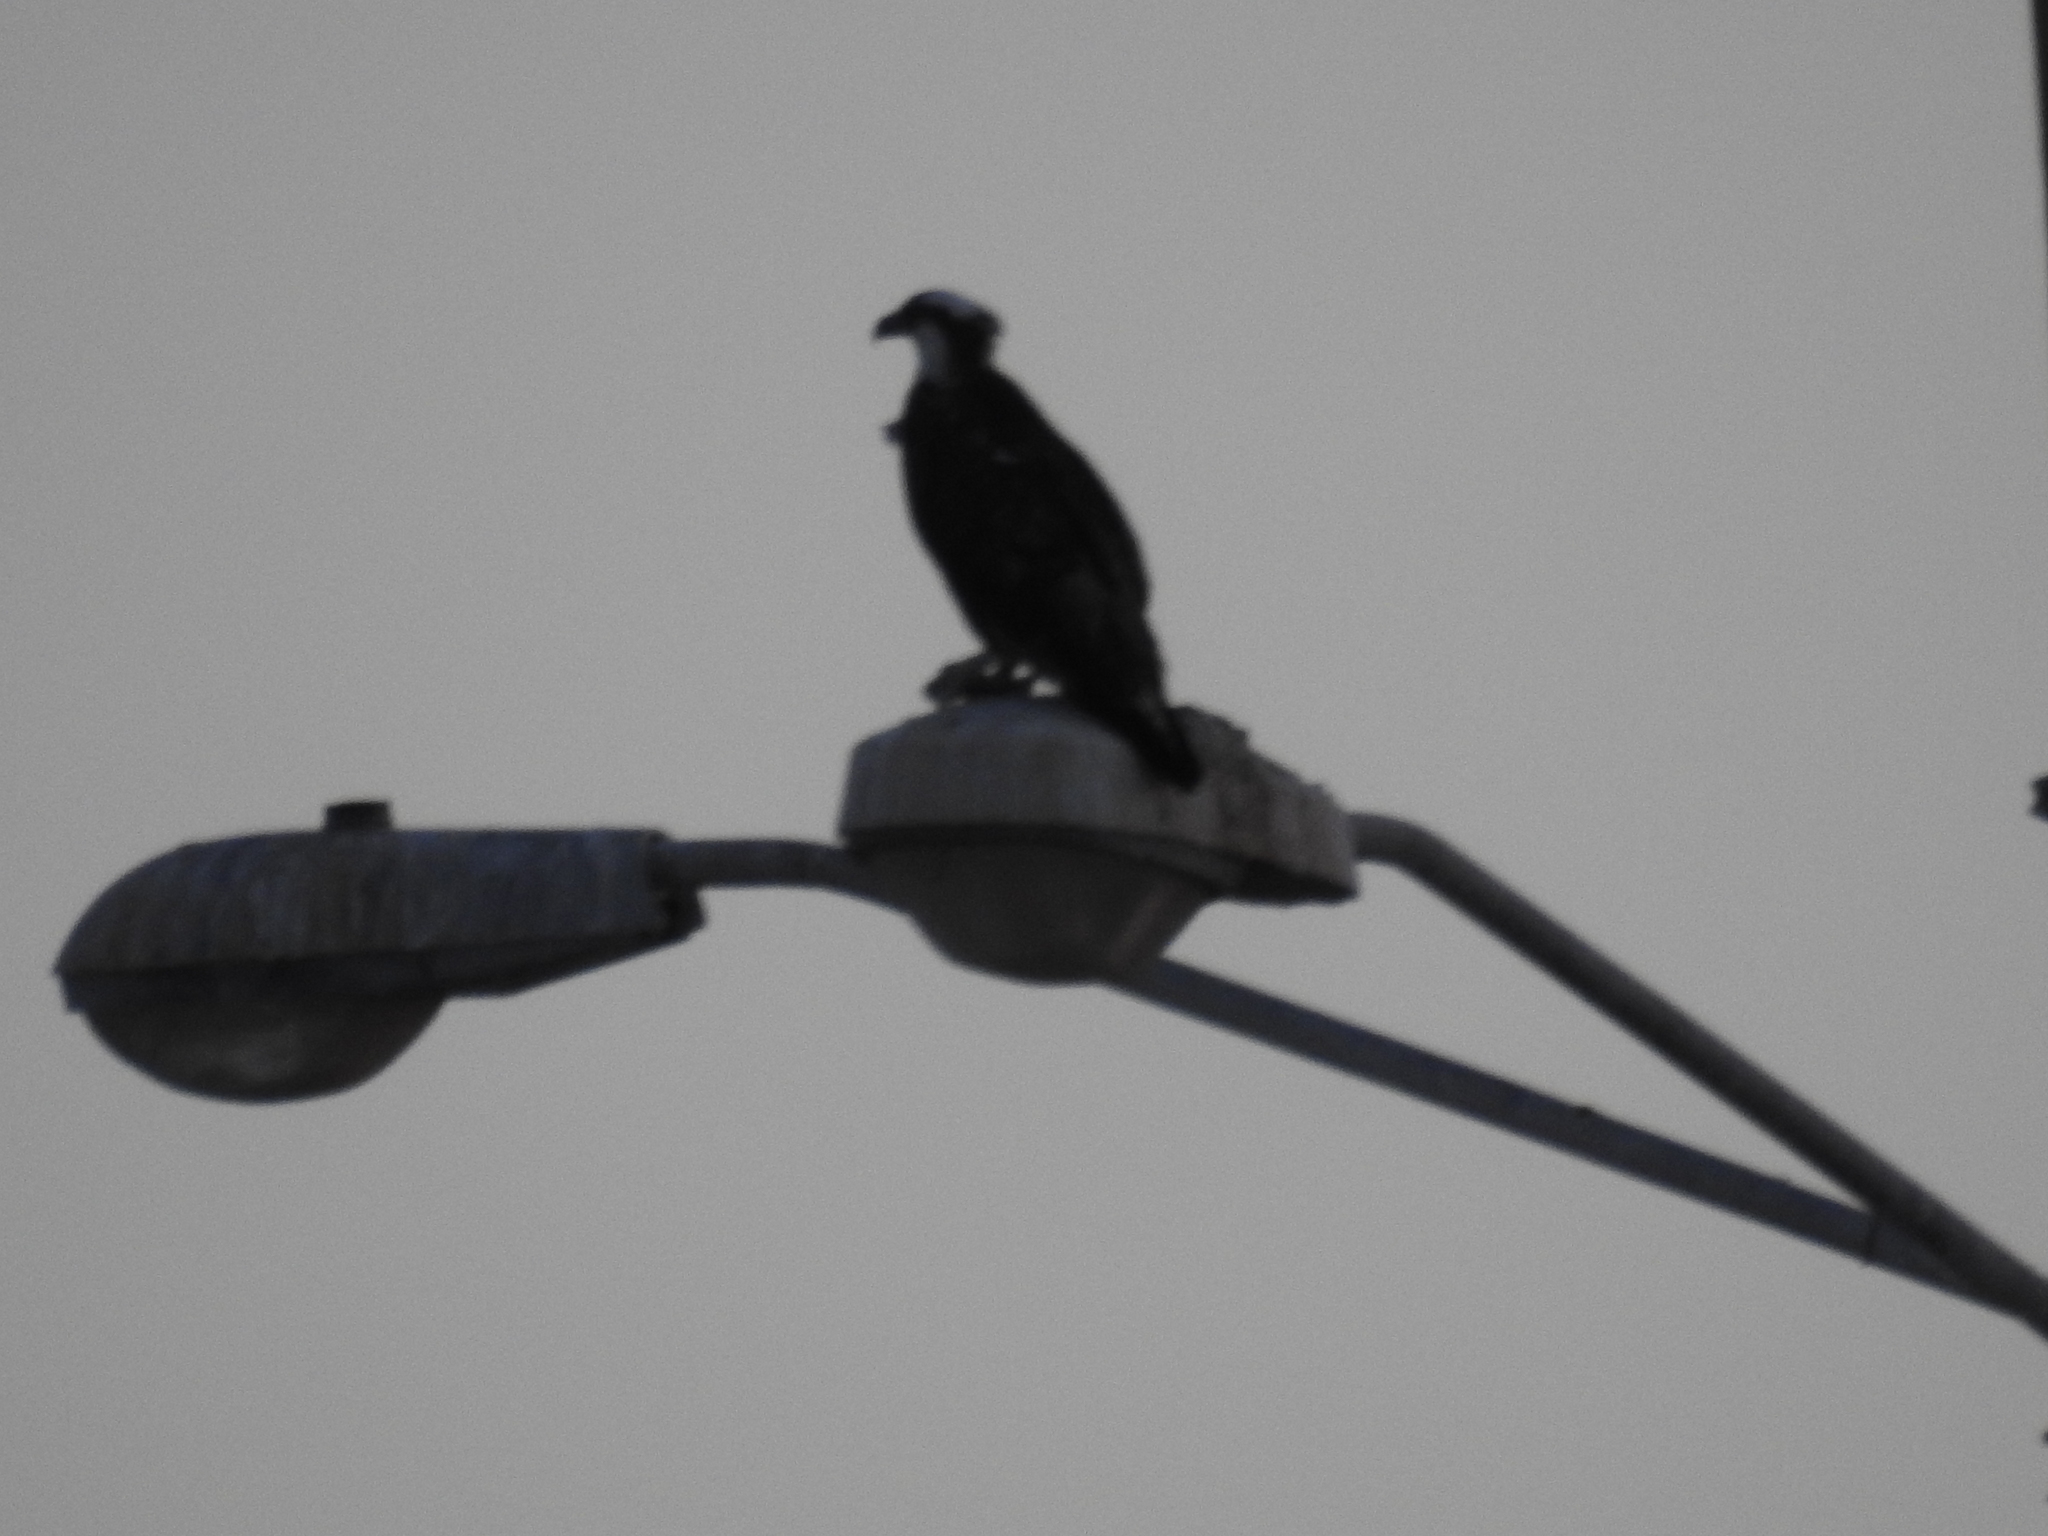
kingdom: Animalia
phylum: Chordata
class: Aves
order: Accipitriformes
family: Pandionidae
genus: Pandion
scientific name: Pandion haliaetus
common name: Osprey
